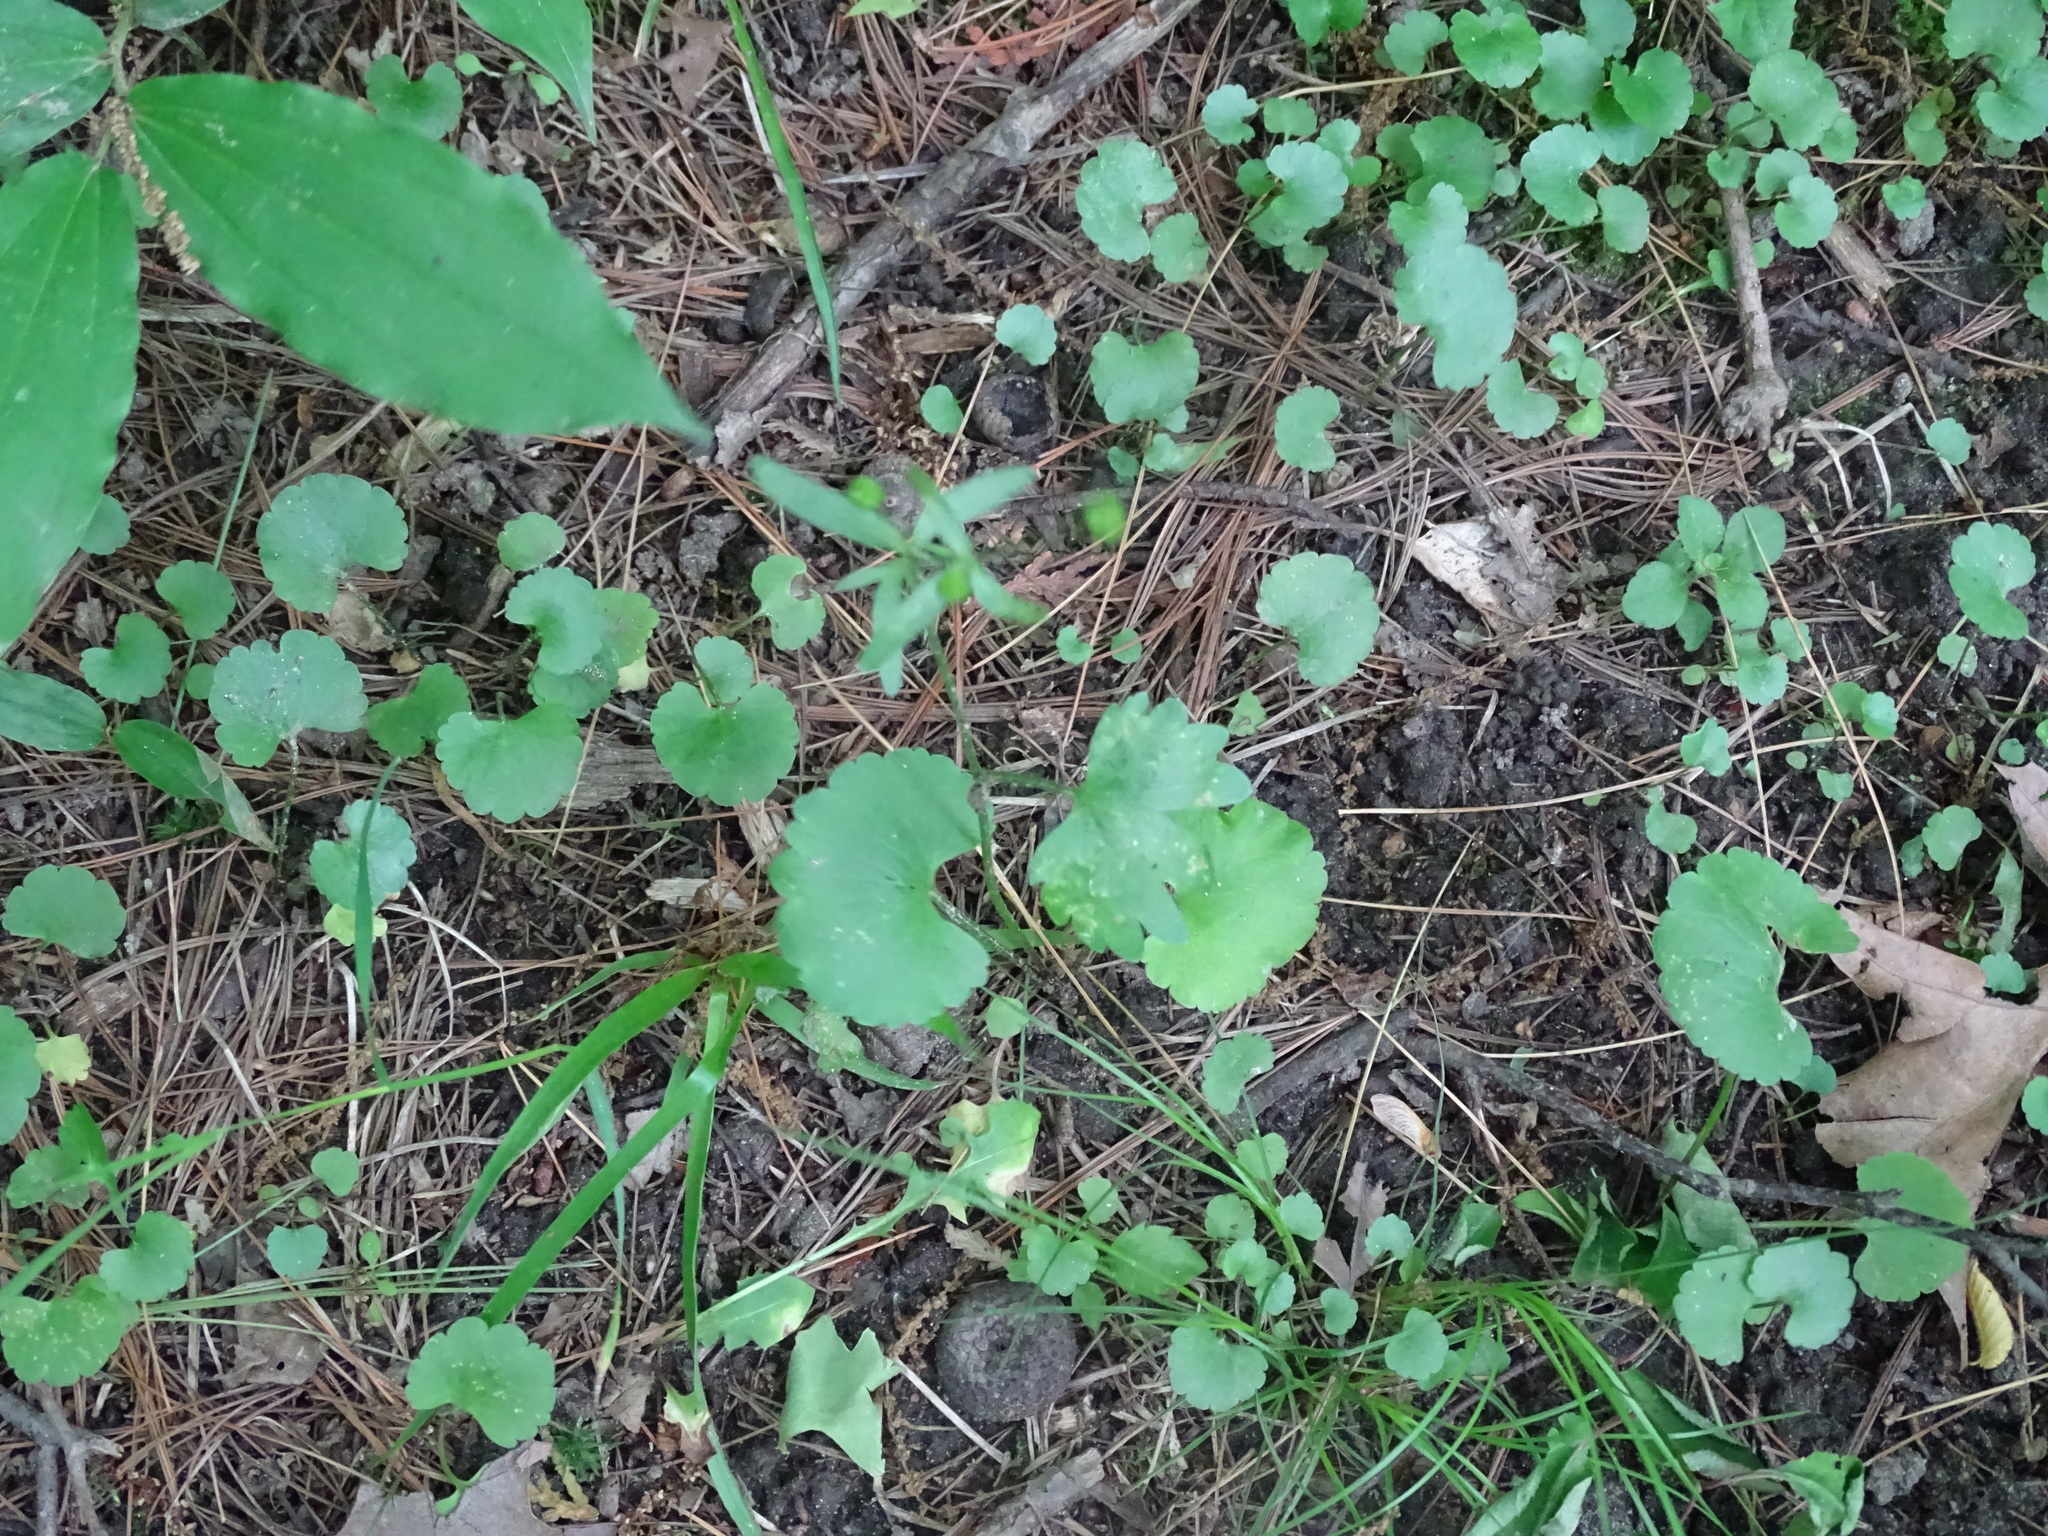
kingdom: Plantae
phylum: Tracheophyta
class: Magnoliopsida
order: Ranunculales
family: Ranunculaceae
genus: Ranunculus
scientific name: Ranunculus abortivus
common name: Early wood buttercup
